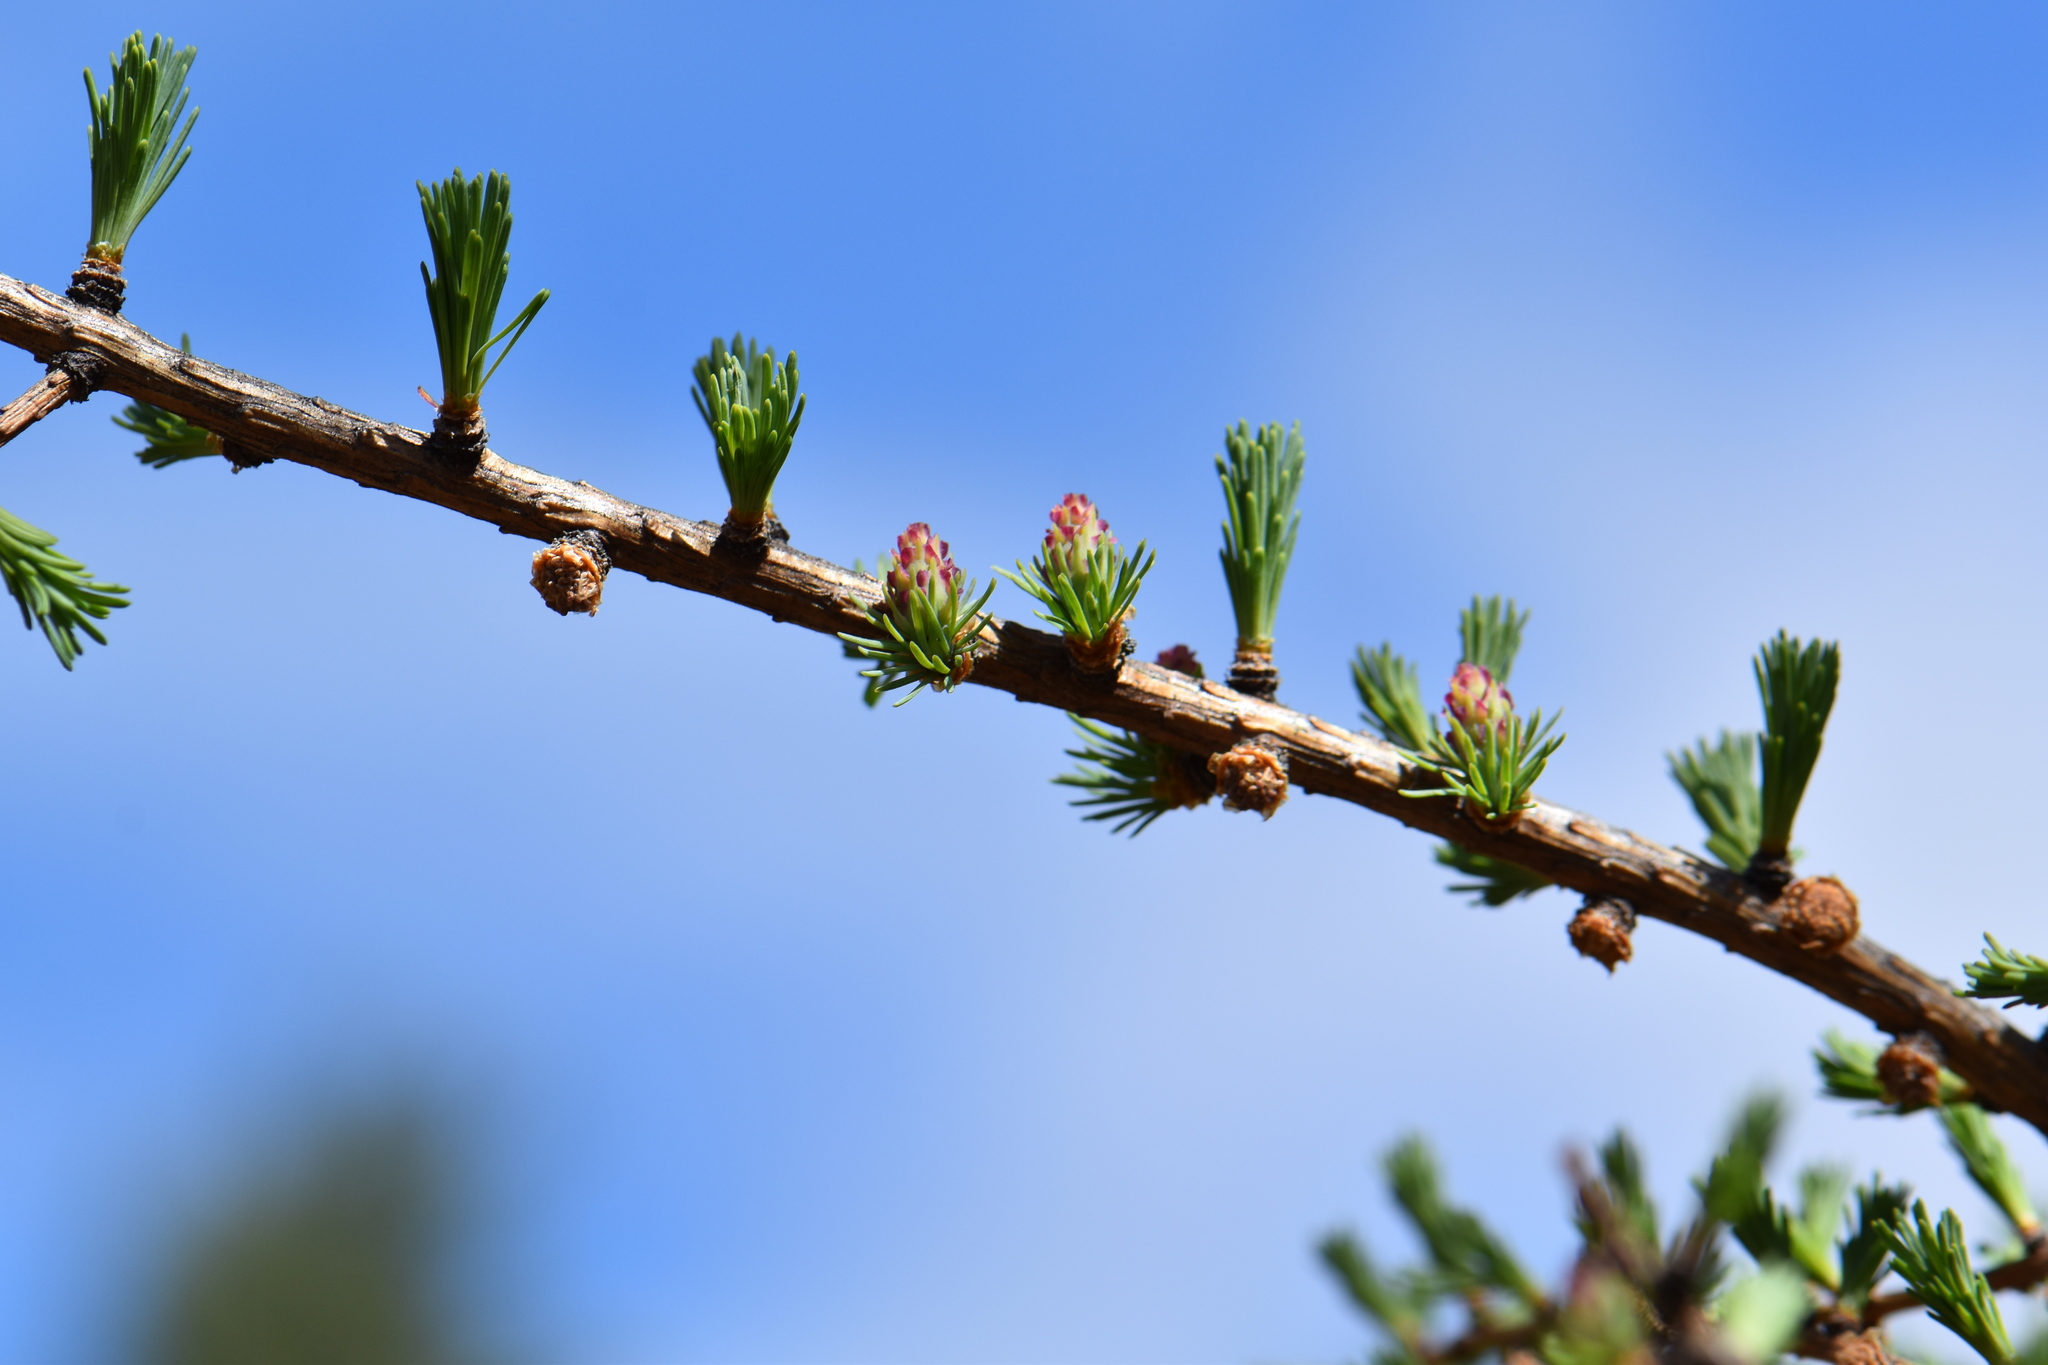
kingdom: Plantae
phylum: Tracheophyta
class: Pinopsida
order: Pinales
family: Pinaceae
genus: Larix
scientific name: Larix laricina
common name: American larch
